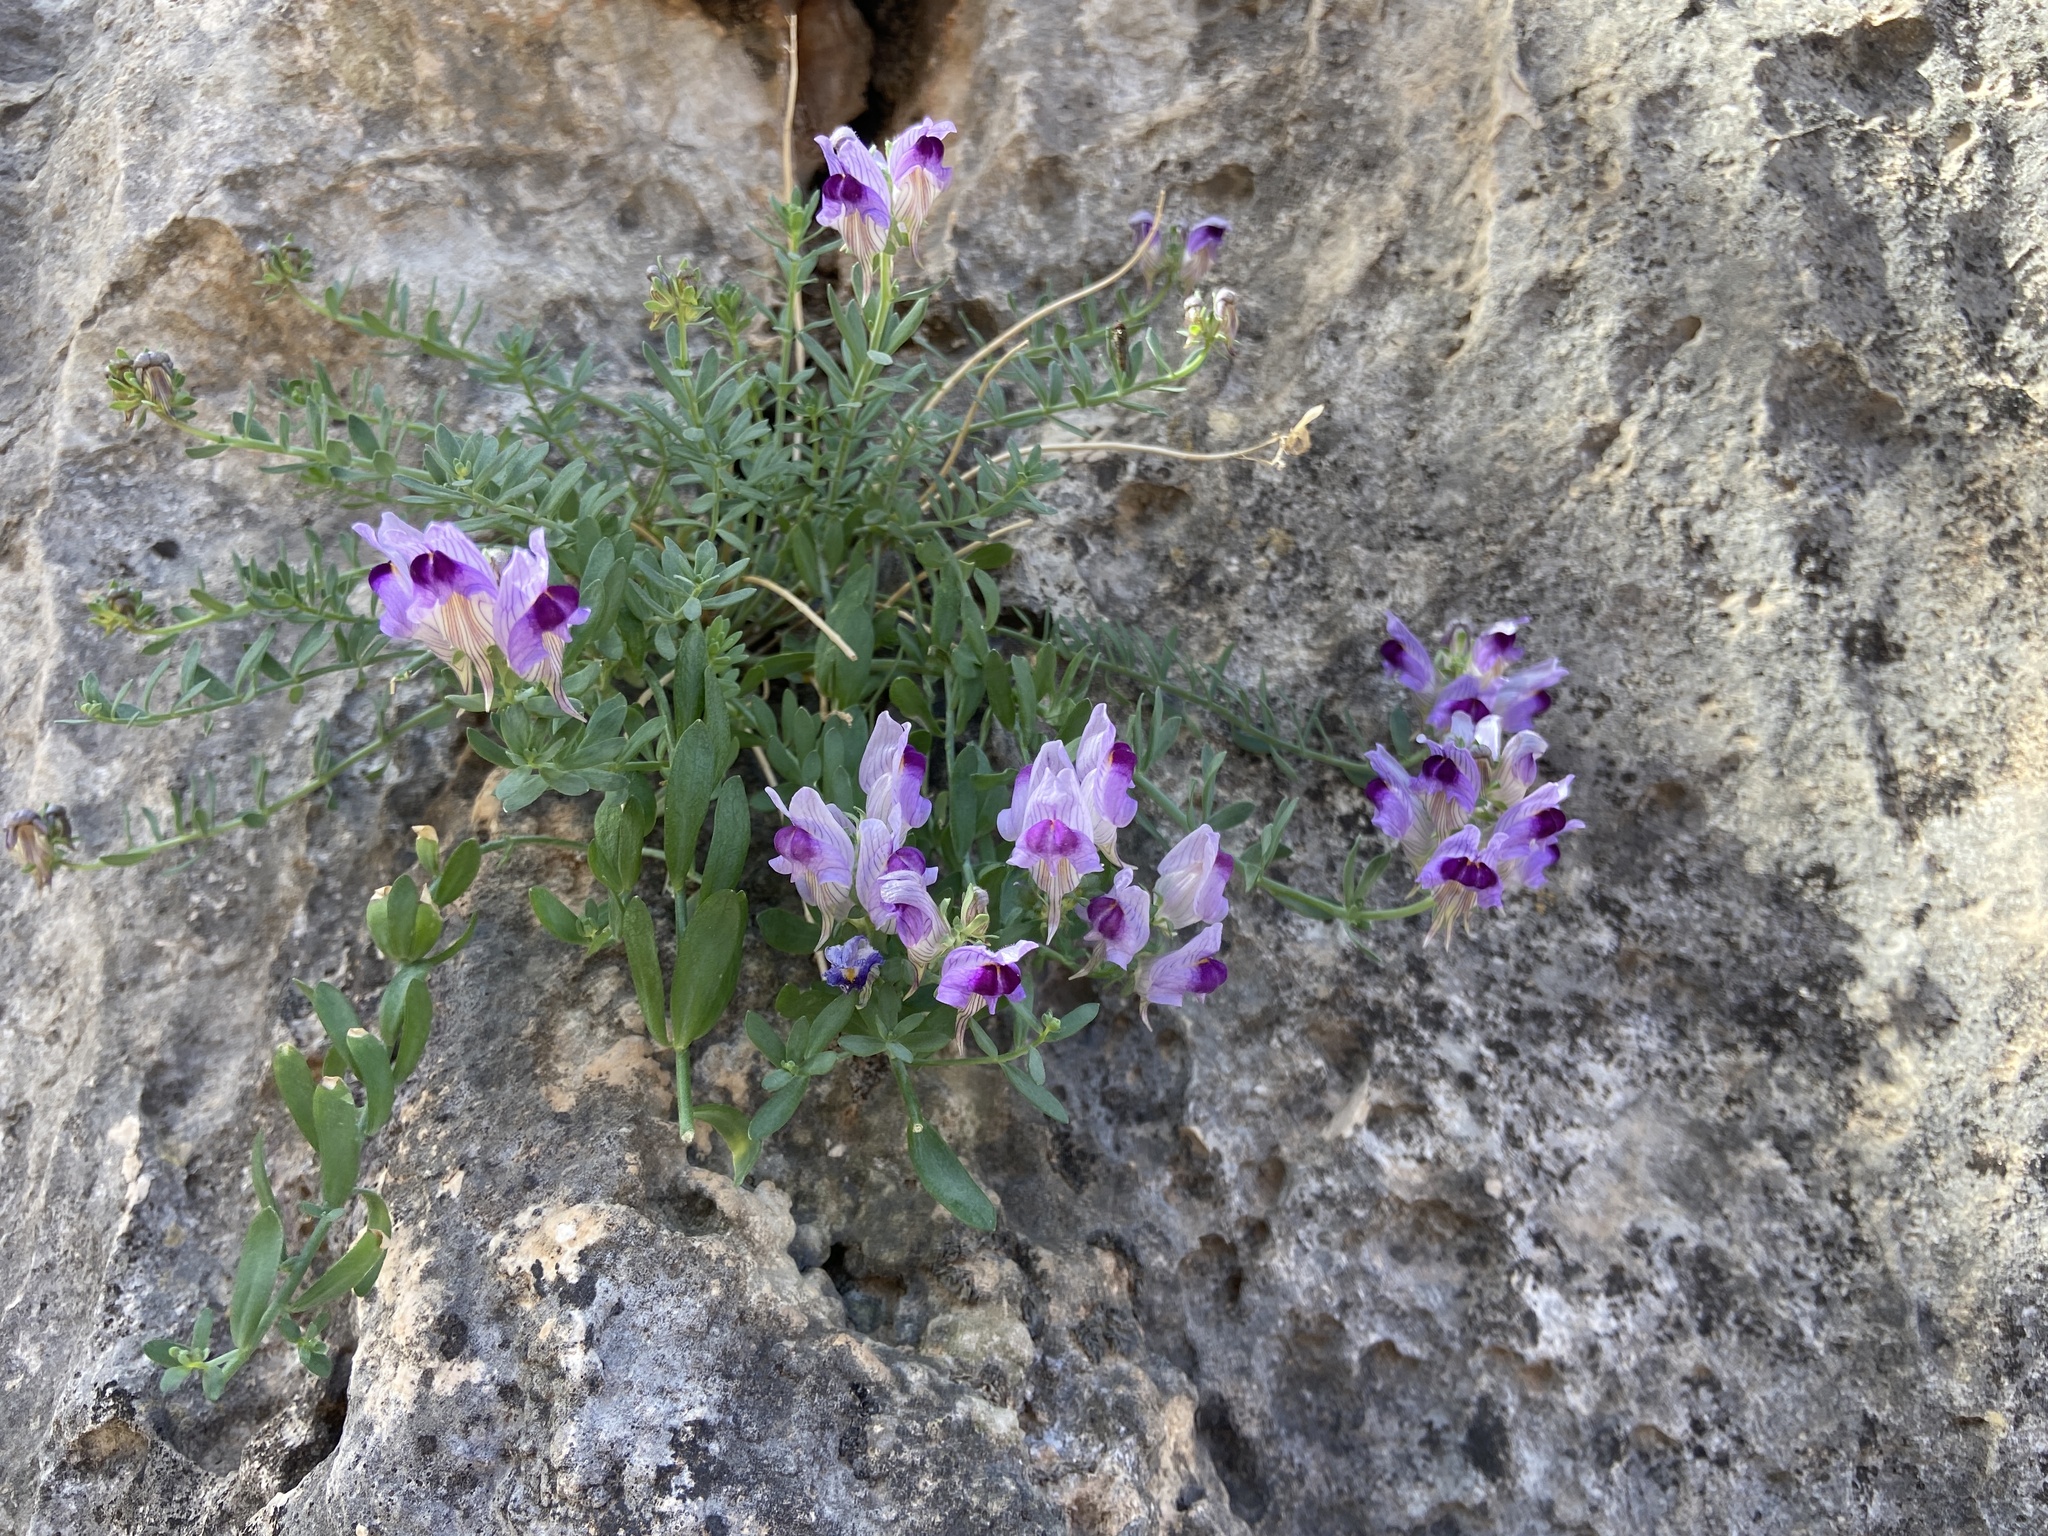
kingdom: Plantae
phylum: Tracheophyta
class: Magnoliopsida
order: Lamiales
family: Plantaginaceae
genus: Linaria
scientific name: Linaria verticillata
